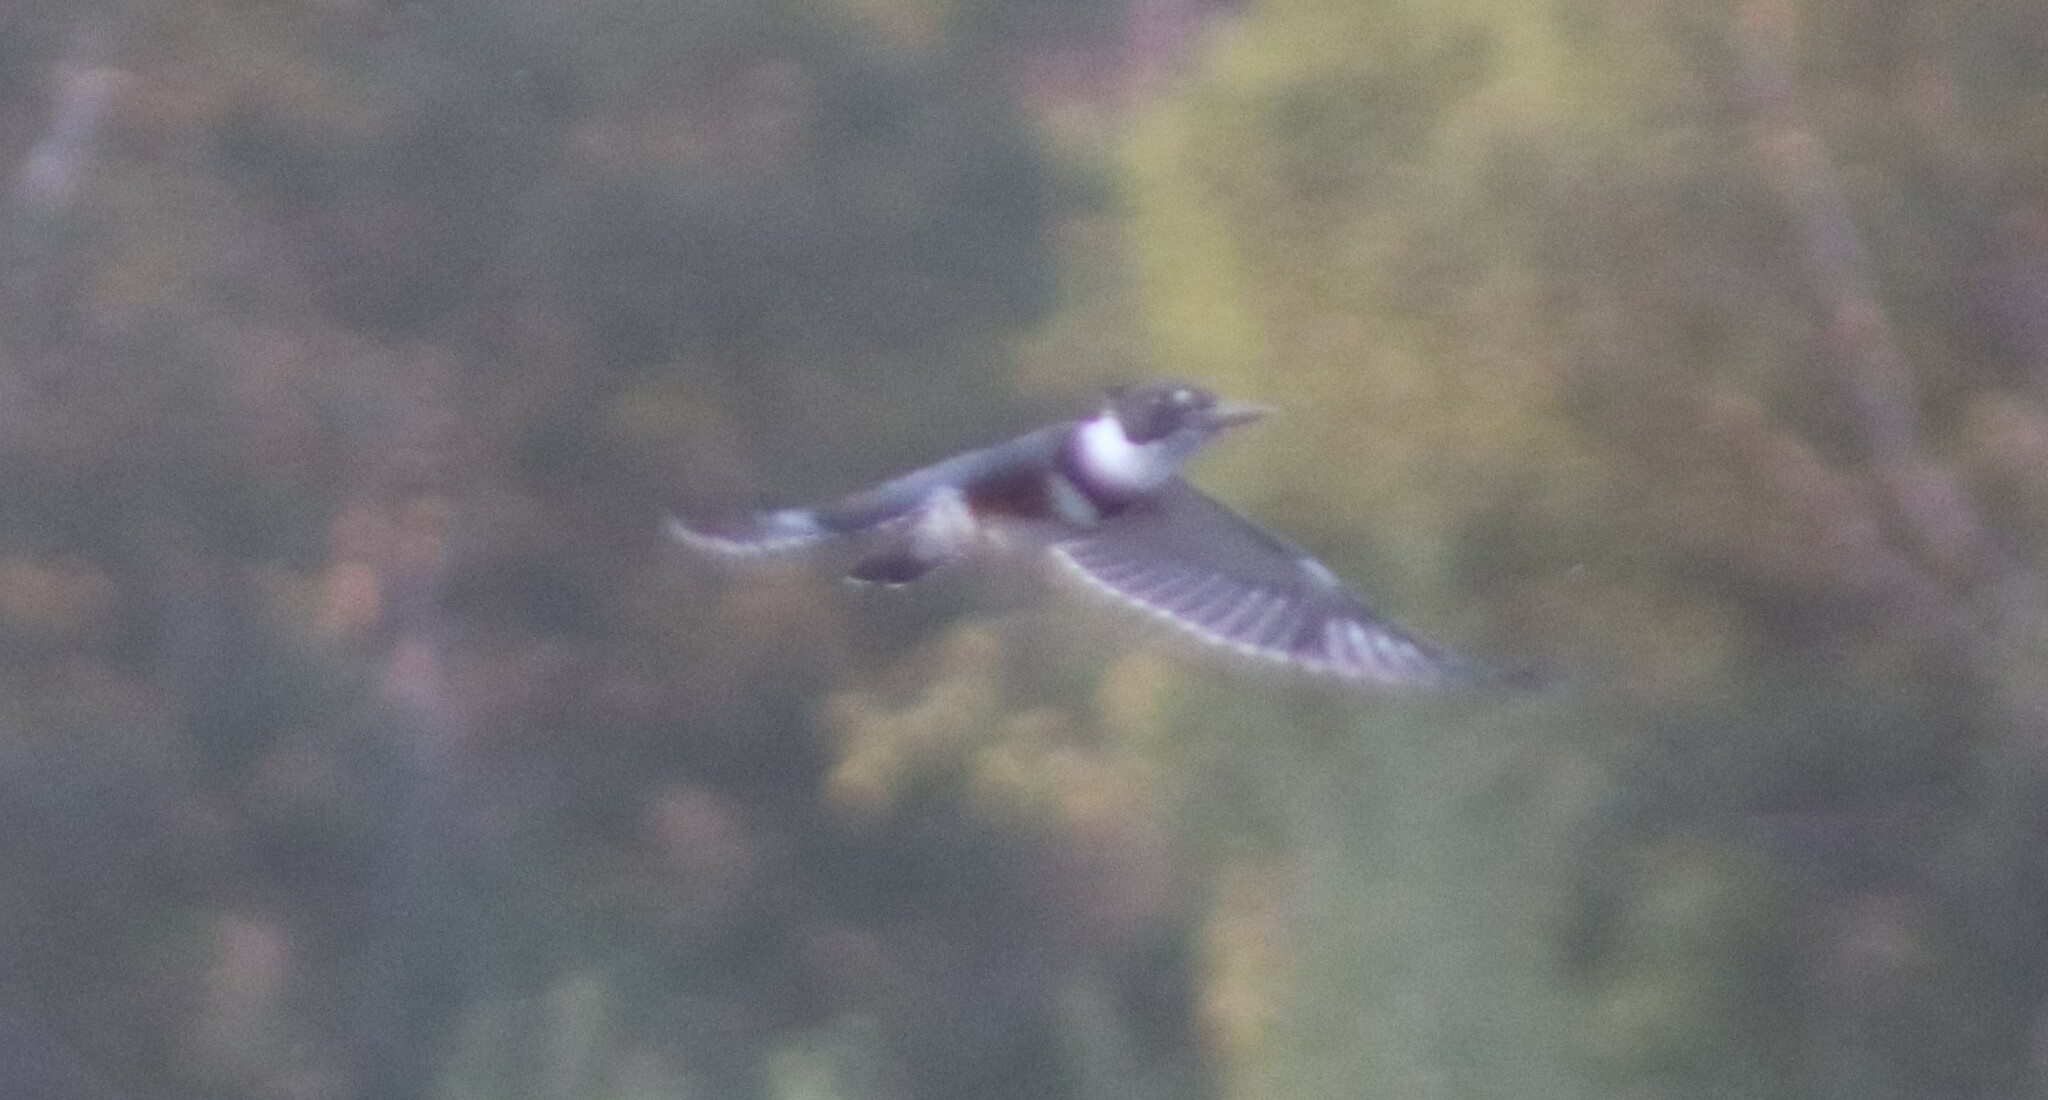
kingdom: Animalia
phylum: Chordata
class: Aves
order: Coraciiformes
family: Alcedinidae
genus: Megaceryle
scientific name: Megaceryle alcyon
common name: Belted kingfisher
